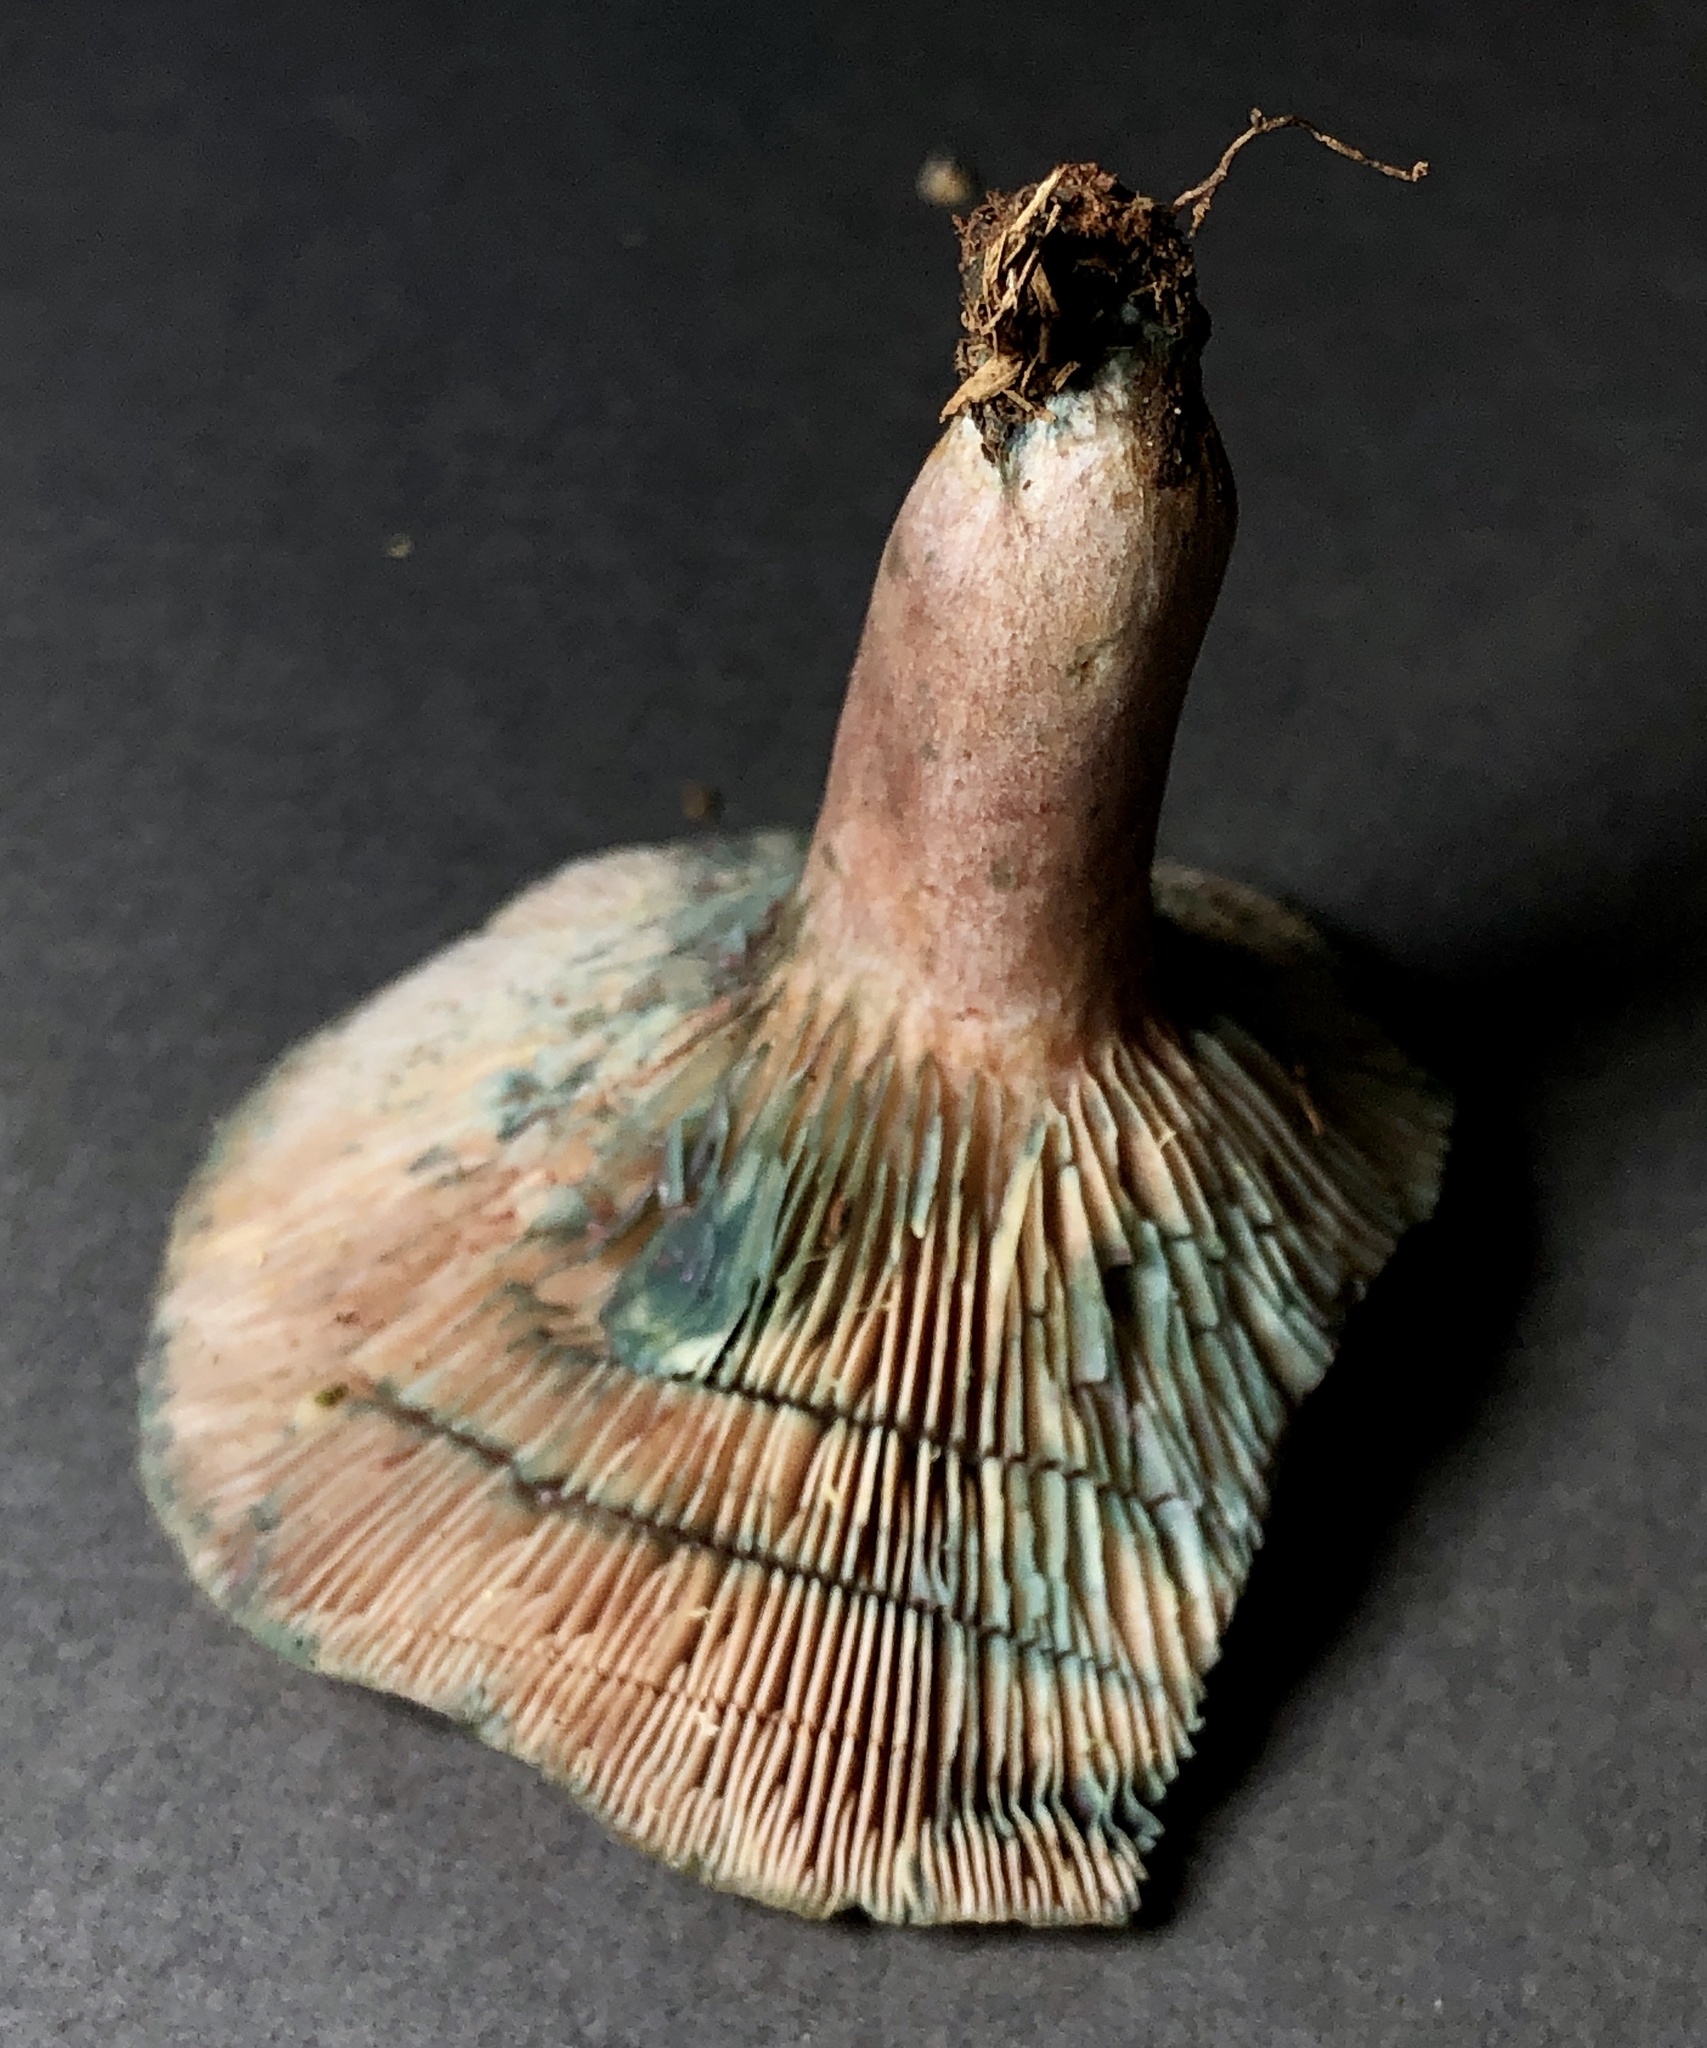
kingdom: Fungi
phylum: Basidiomycota
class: Agaricomycetes
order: Russulales
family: Russulaceae
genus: Lactarius
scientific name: Lactarius paradoxus
